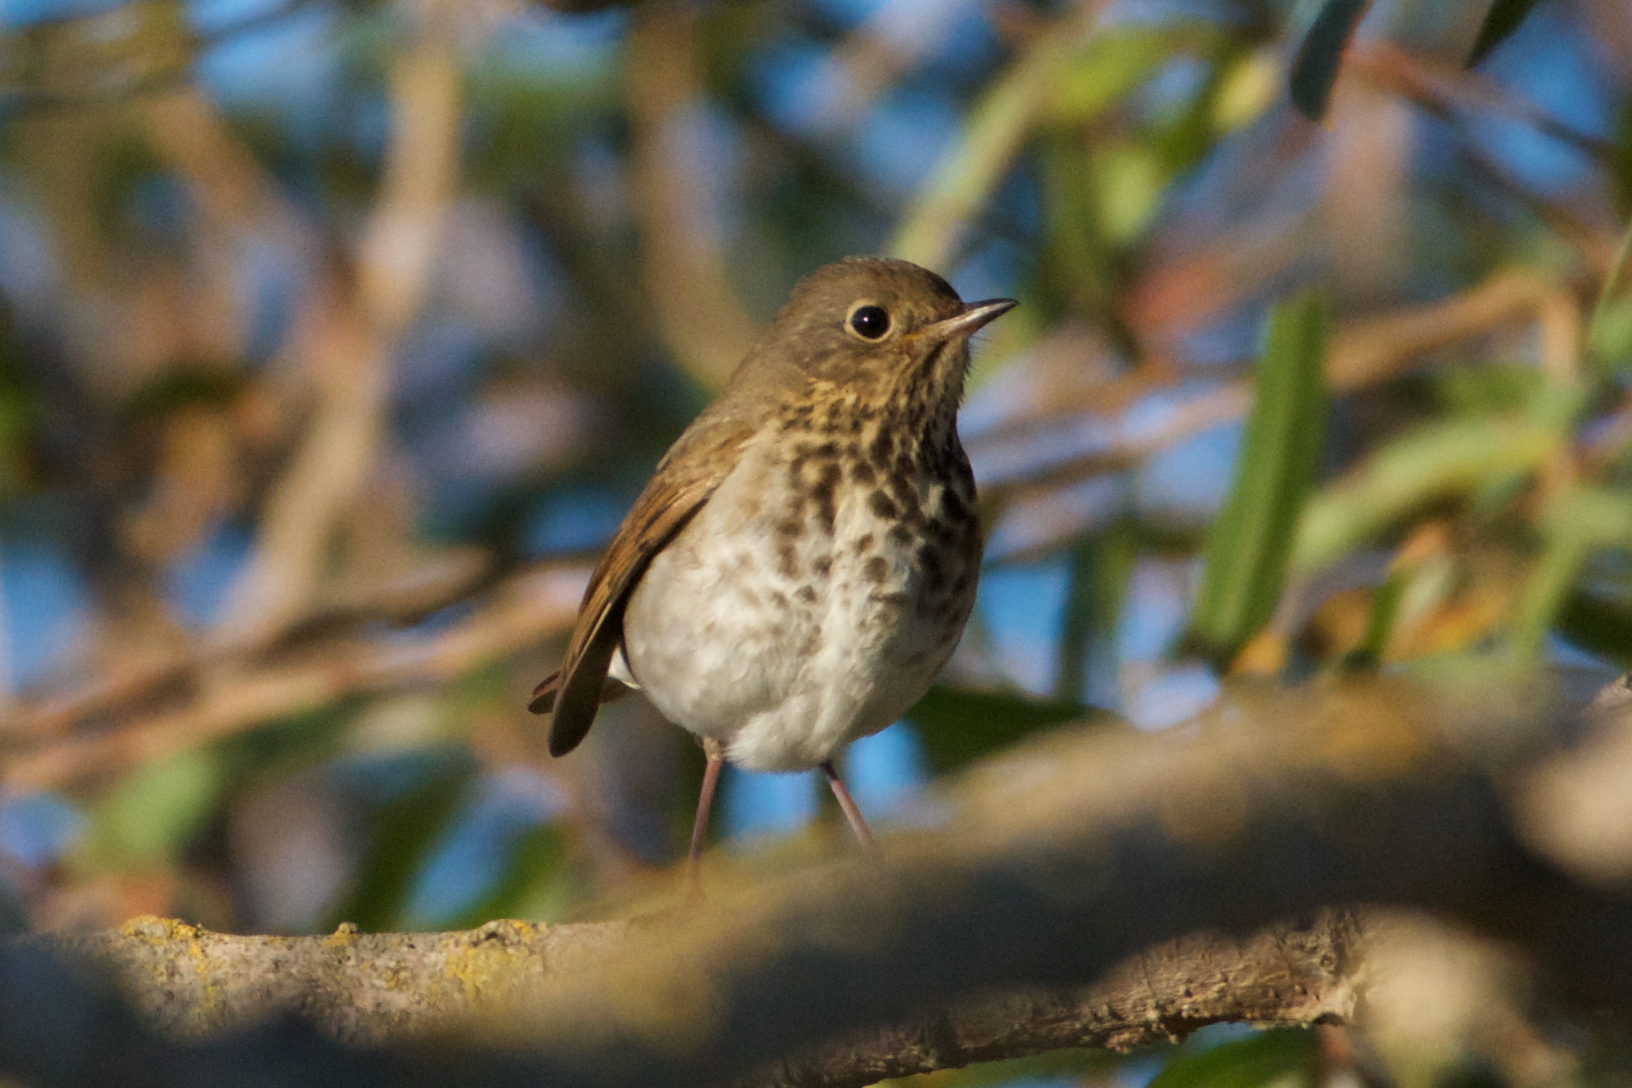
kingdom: Animalia
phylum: Chordata
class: Aves
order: Passeriformes
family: Turdidae
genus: Catharus
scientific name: Catharus guttatus
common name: Hermit thrush
